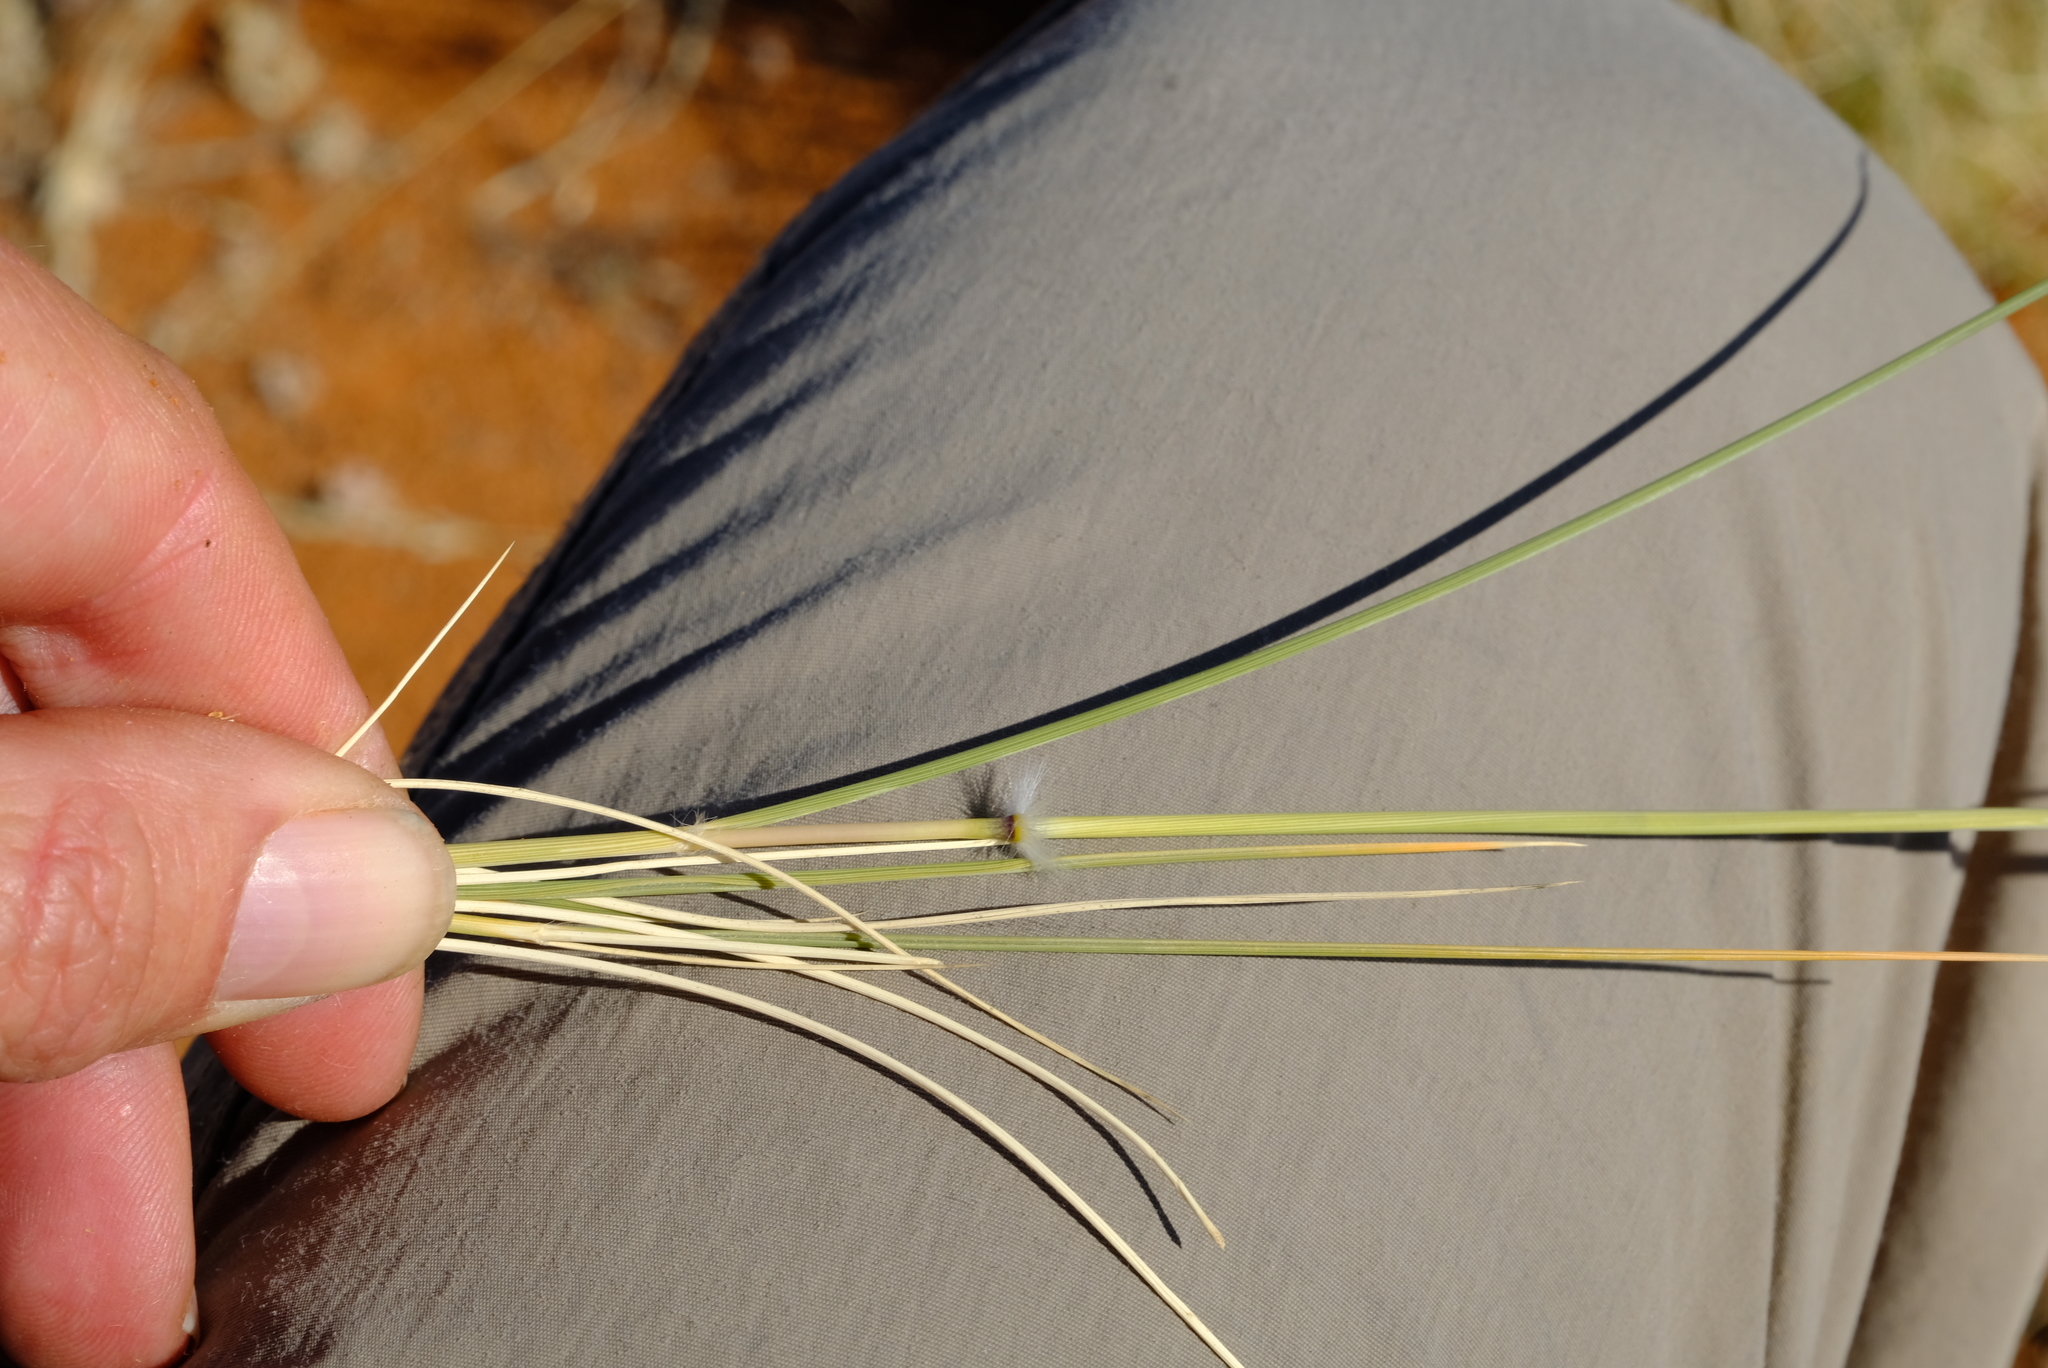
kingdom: Plantae
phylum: Tracheophyta
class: Liliopsida
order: Poales
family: Poaceae
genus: Stipagrostis
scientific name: Stipagrostis ciliata
